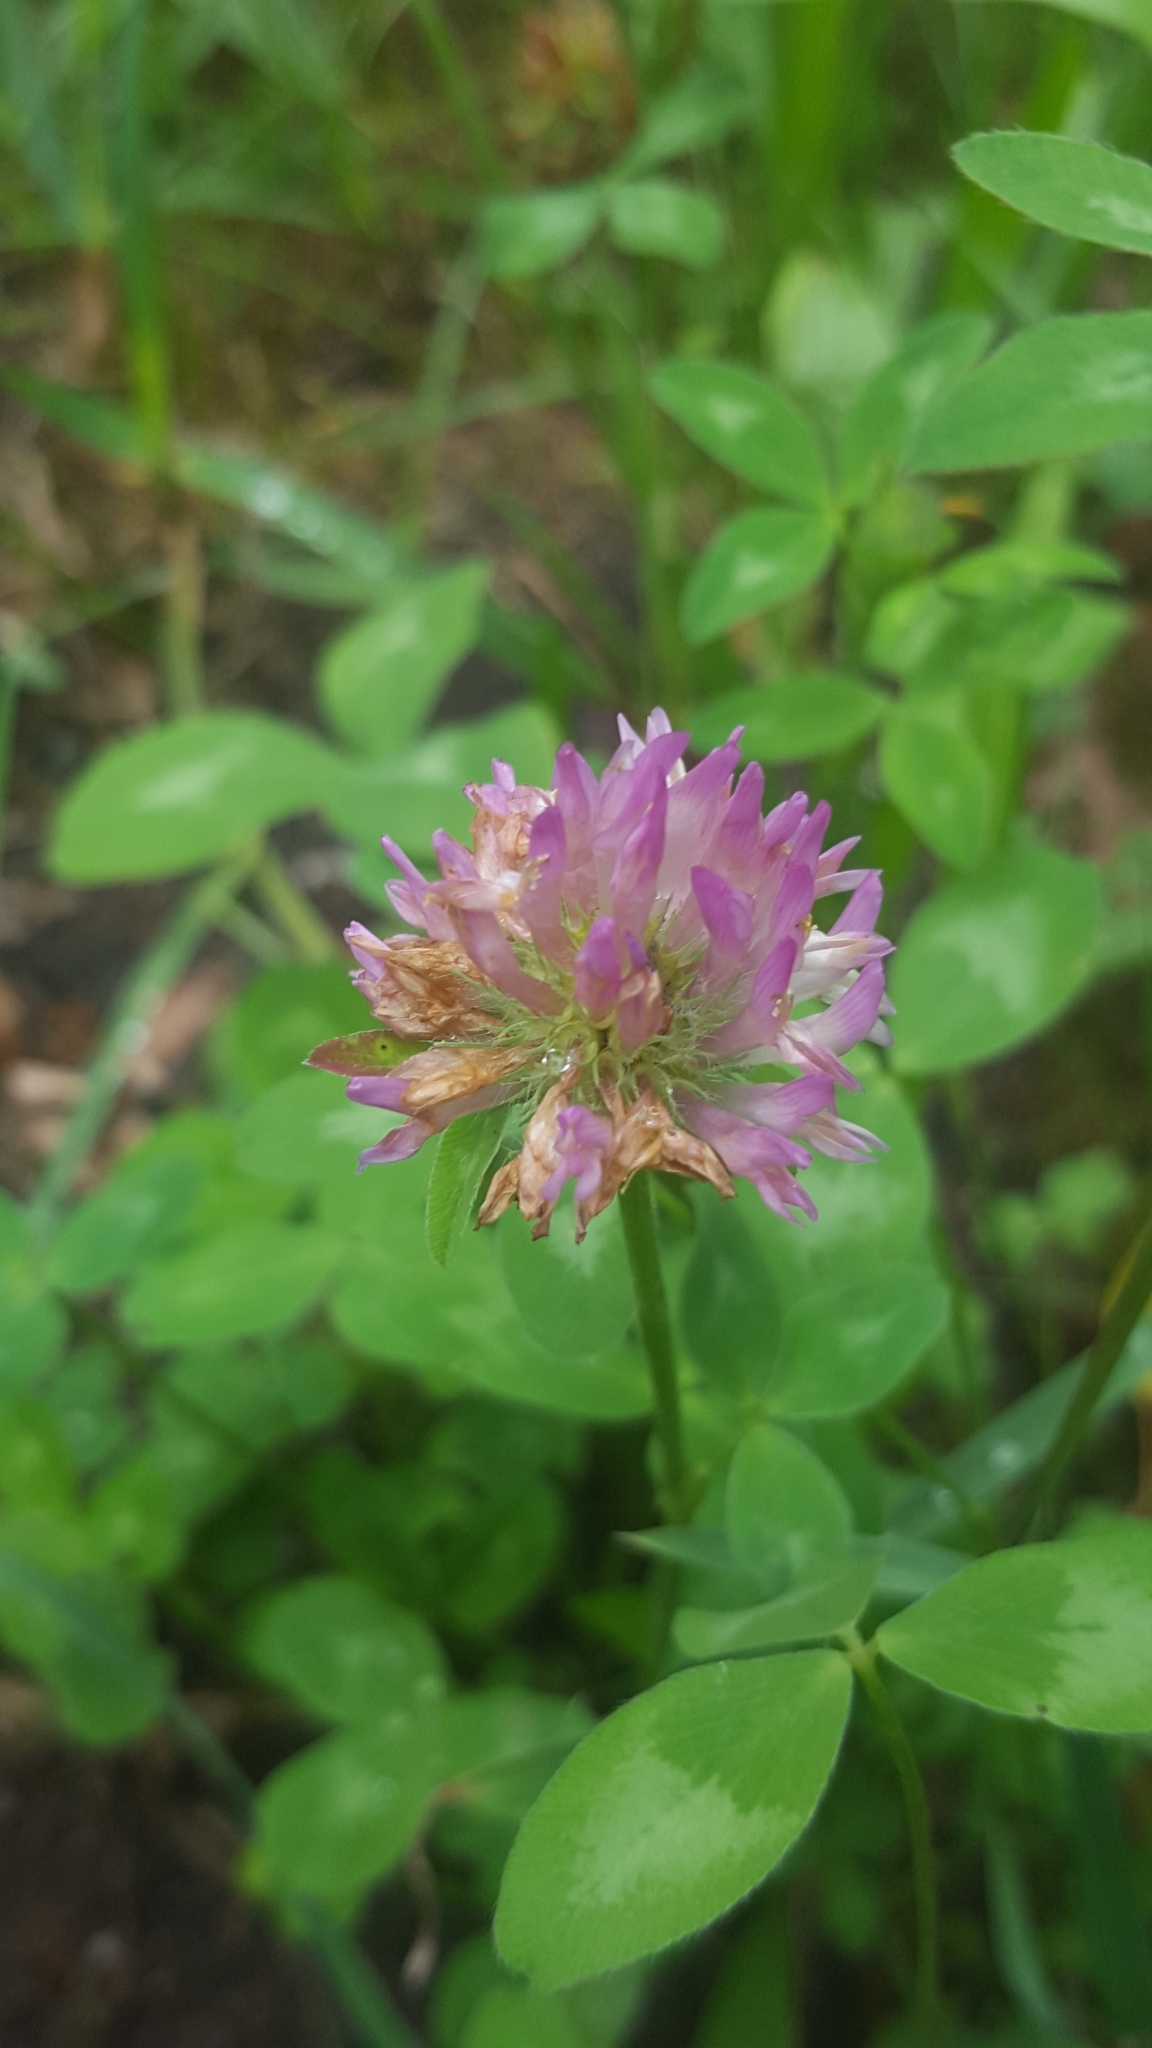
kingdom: Plantae
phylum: Tracheophyta
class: Magnoliopsida
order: Fabales
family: Fabaceae
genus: Trifolium
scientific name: Trifolium pratense
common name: Red clover
